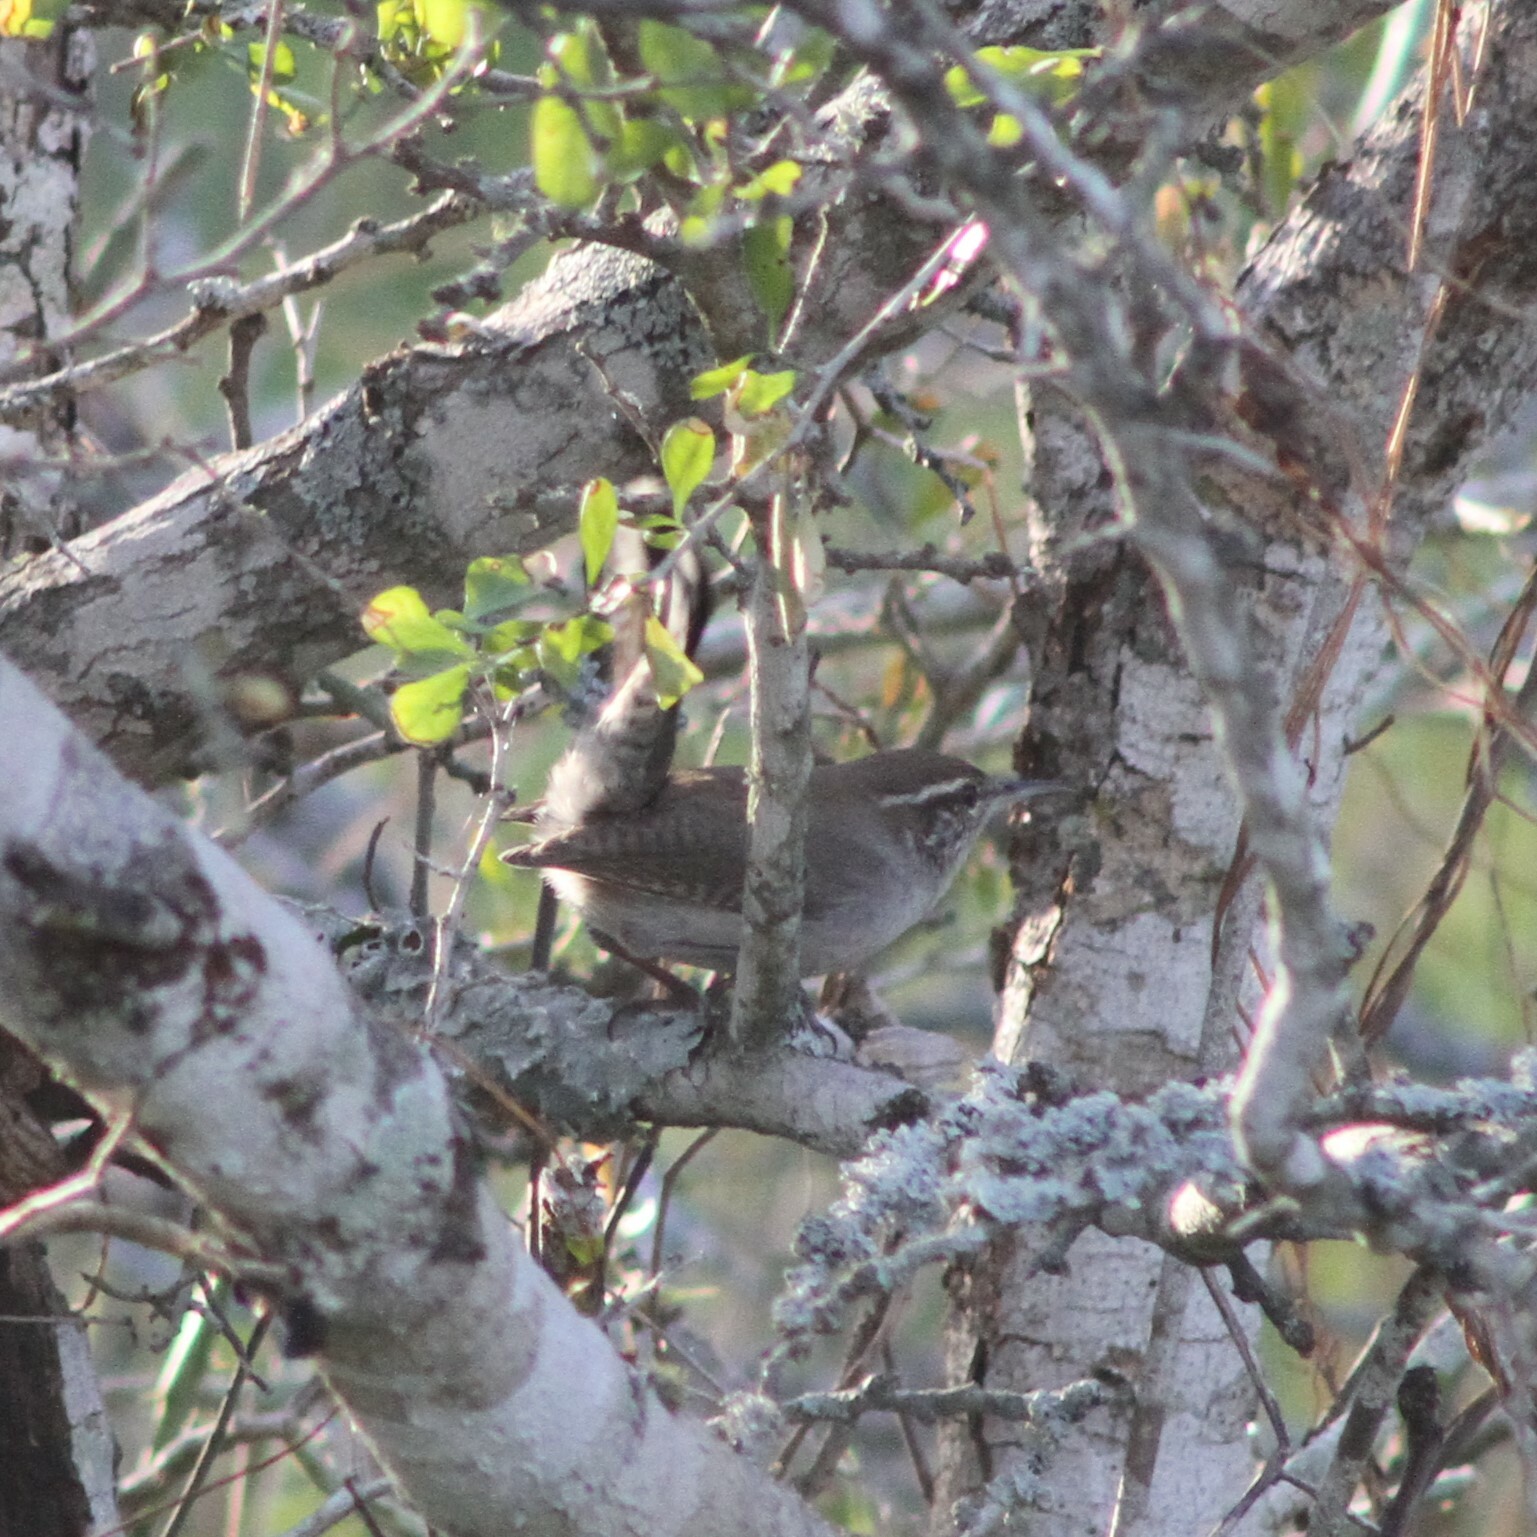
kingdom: Animalia
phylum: Chordata
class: Aves
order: Passeriformes
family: Troglodytidae
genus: Thryomanes
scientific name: Thryomanes bewickii
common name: Bewick's wren
